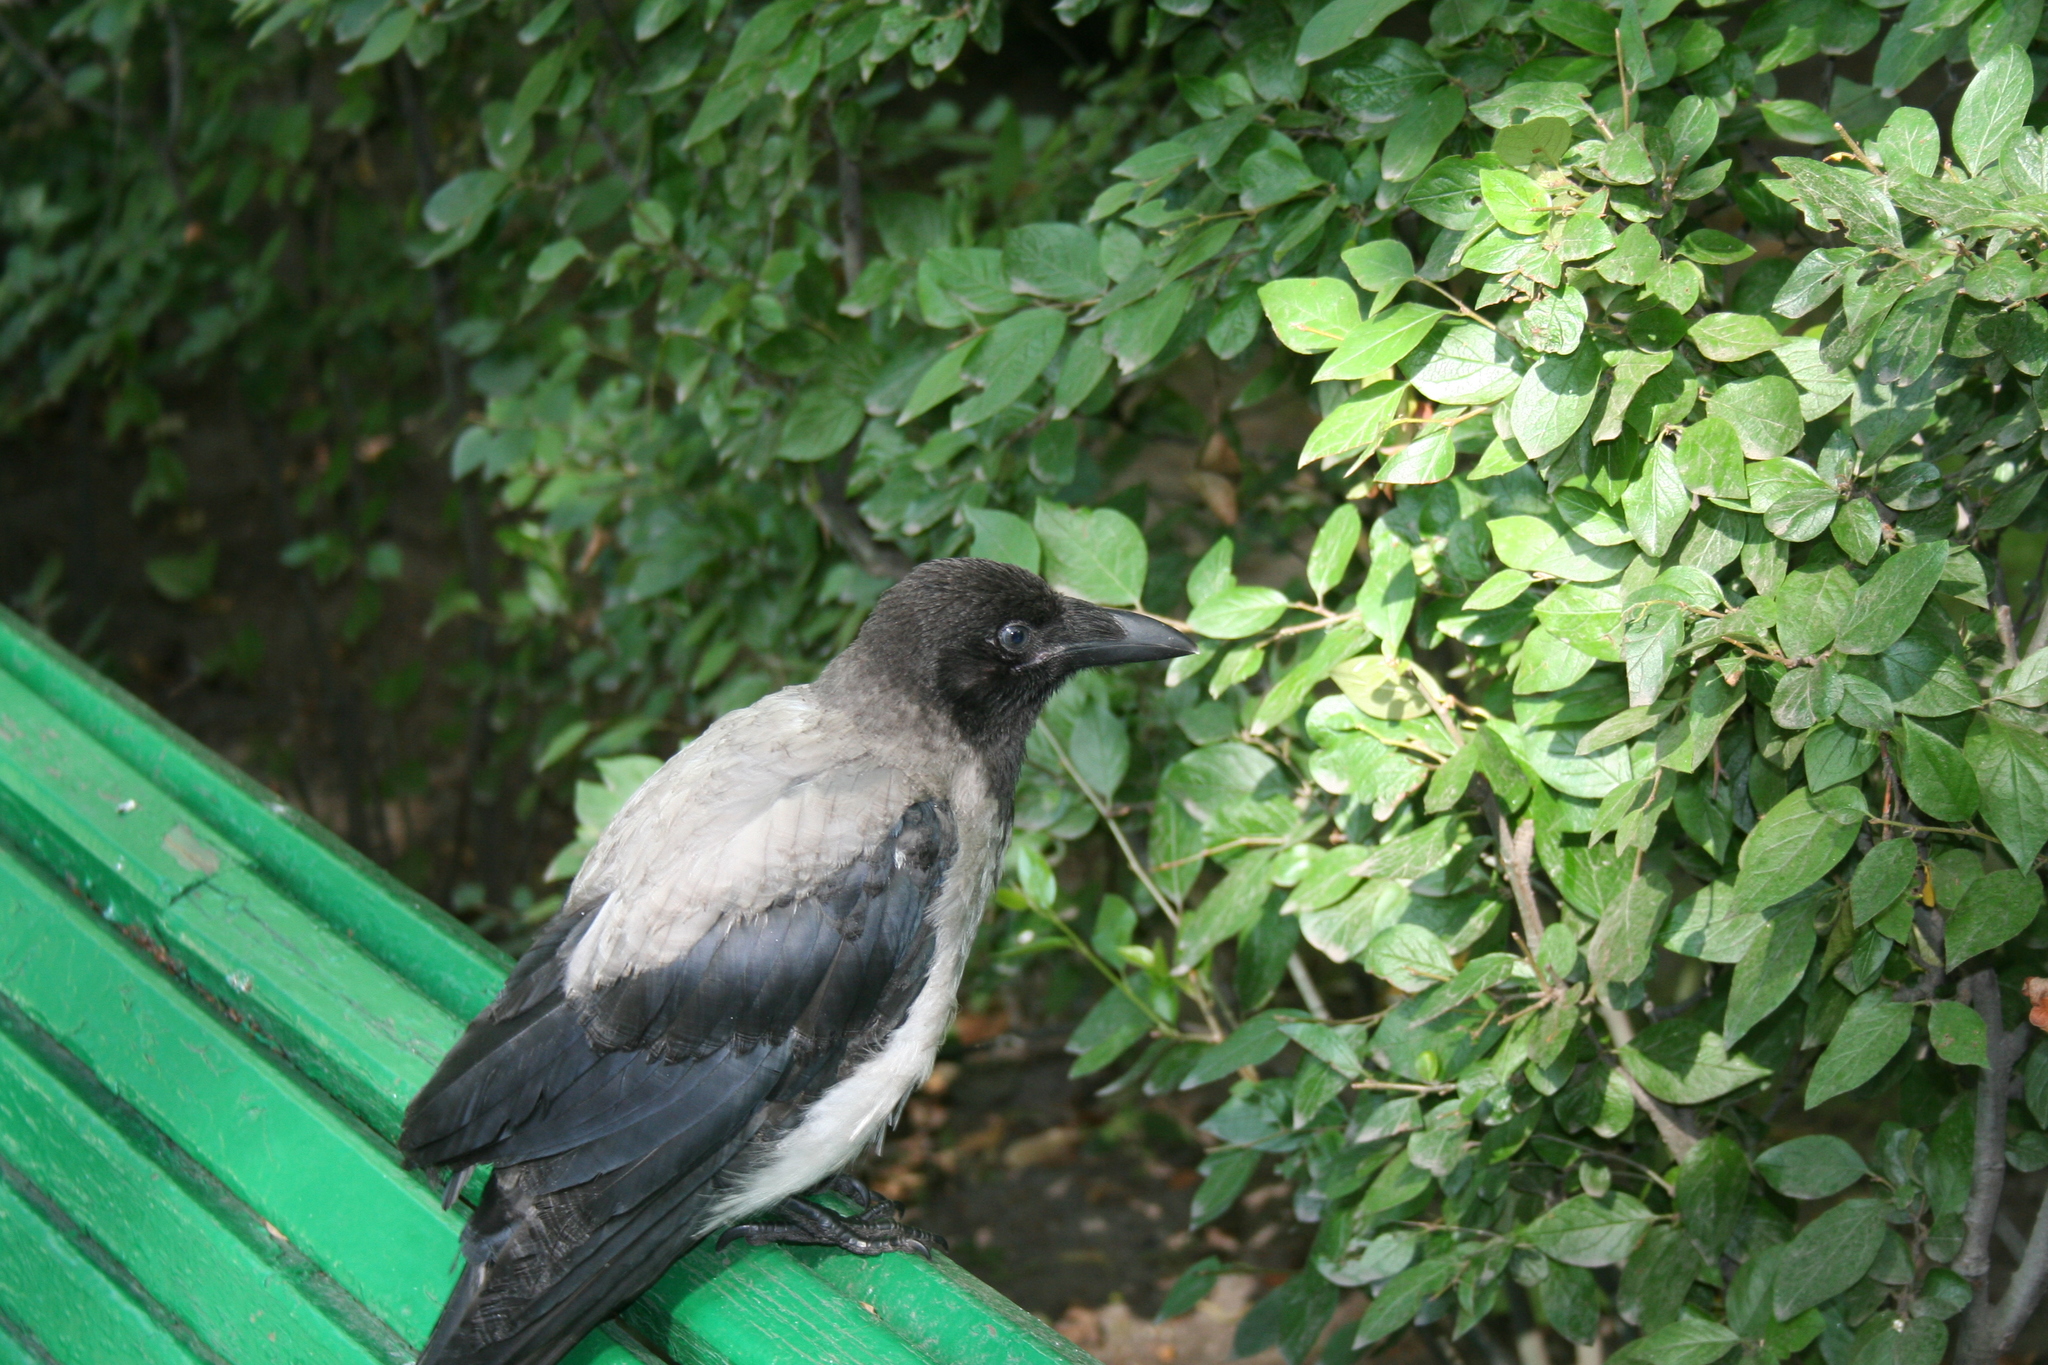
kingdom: Animalia
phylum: Chordata
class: Aves
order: Passeriformes
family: Corvidae
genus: Corvus
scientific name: Corvus cornix
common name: Hooded crow
